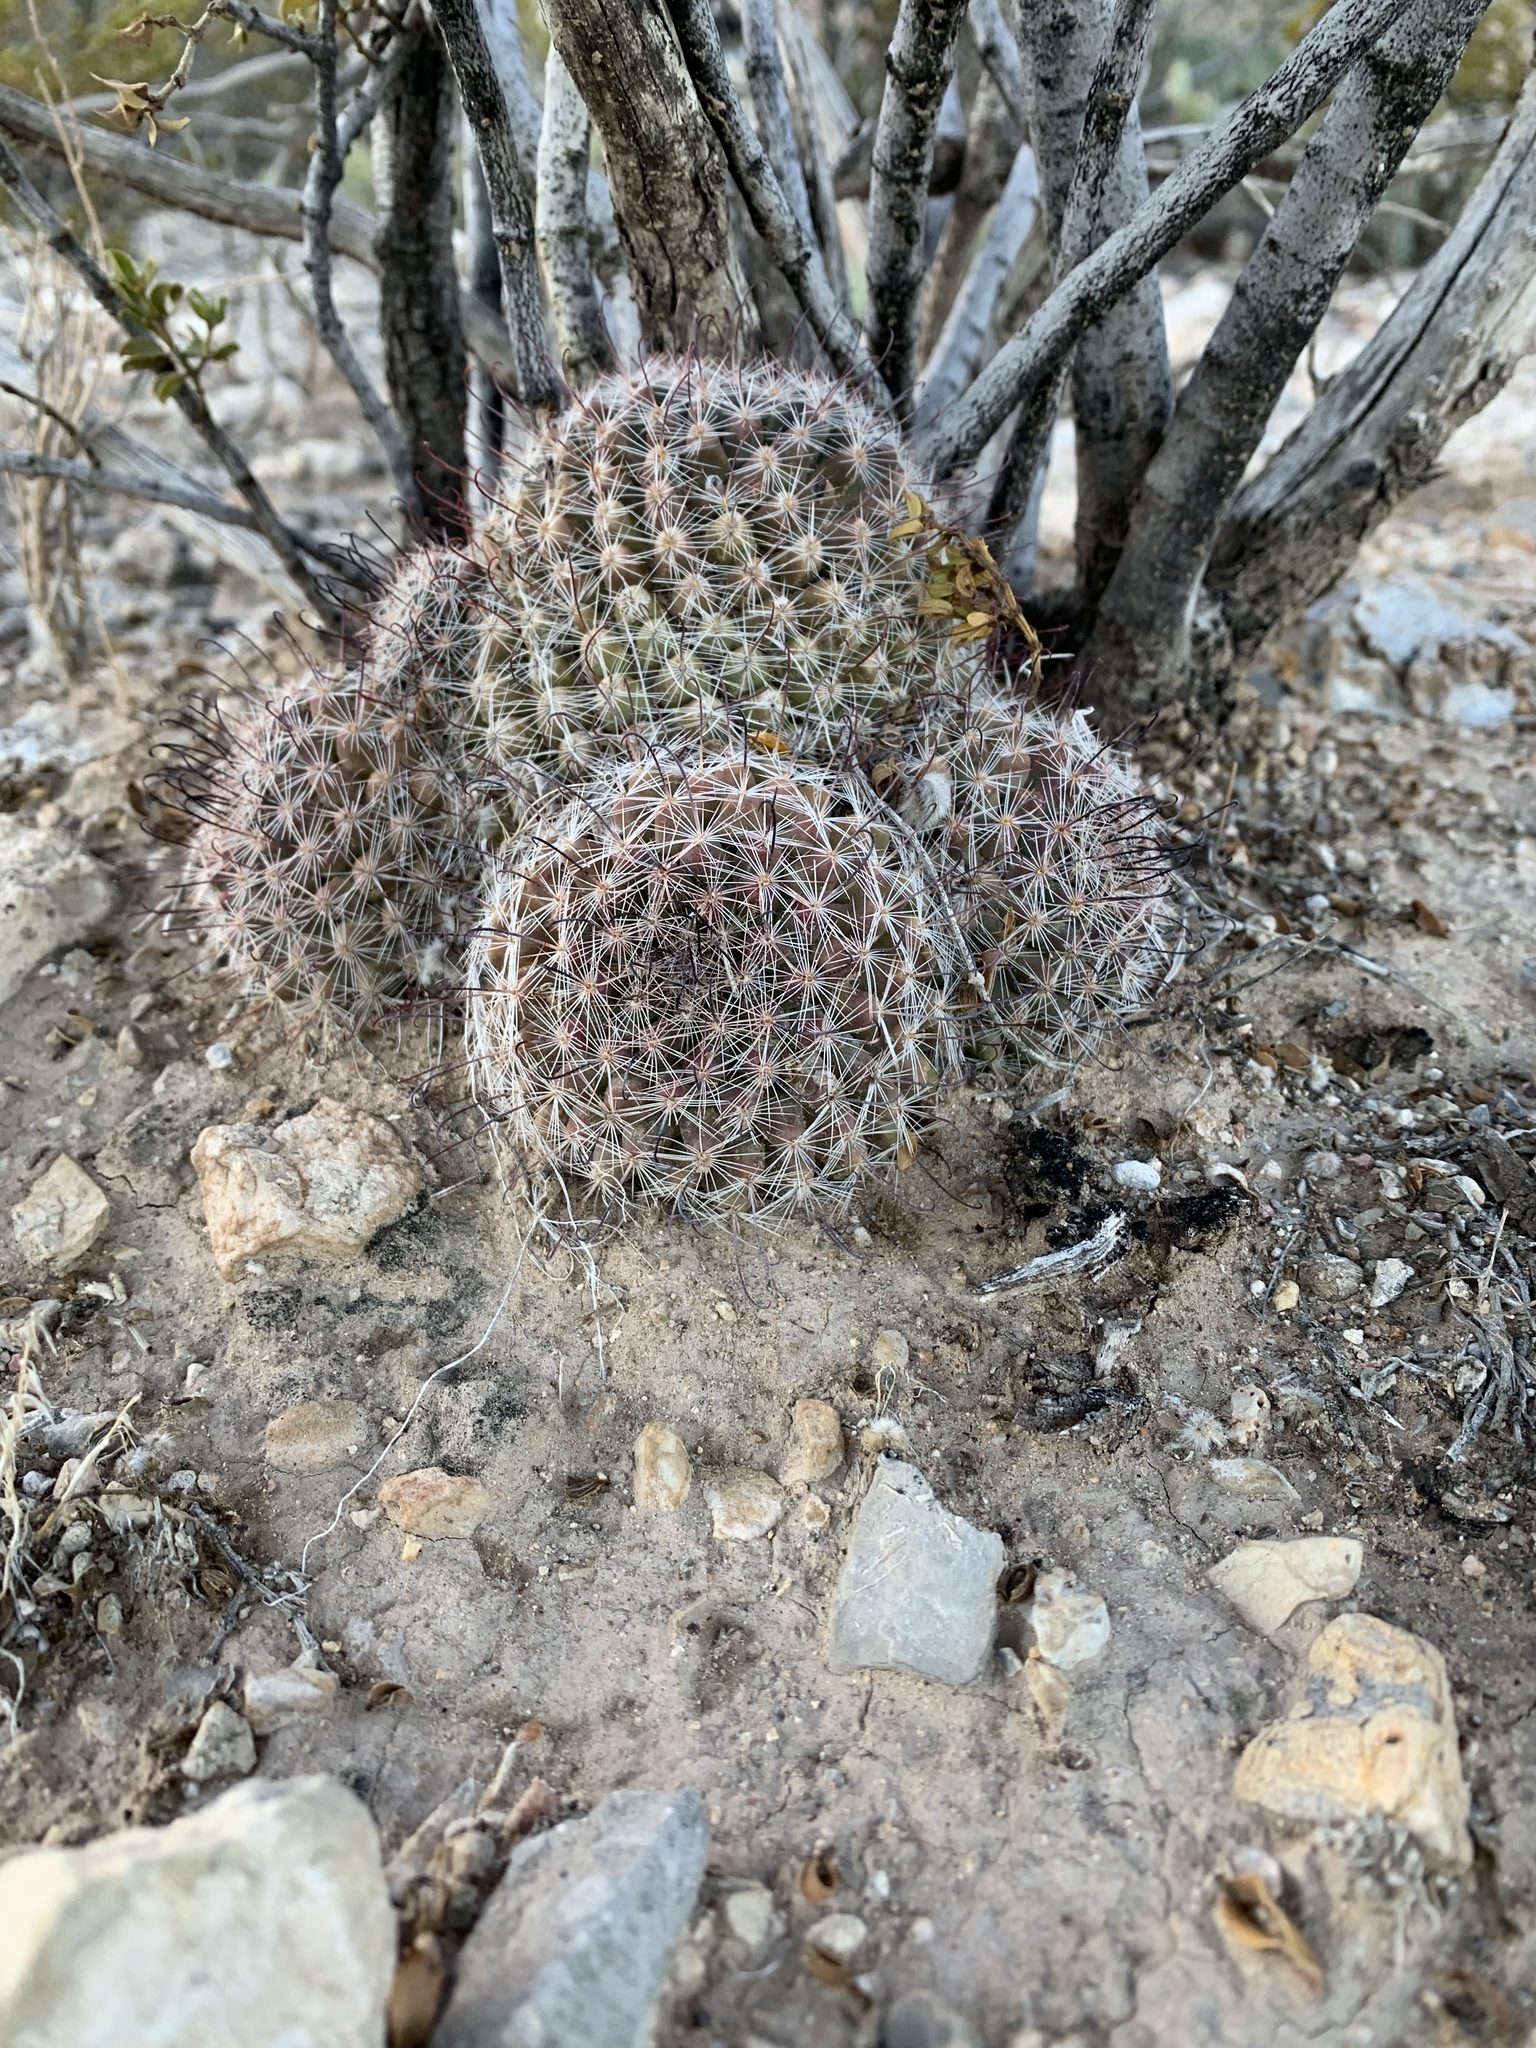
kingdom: Plantae
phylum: Tracheophyta
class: Magnoliopsida
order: Caryophyllales
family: Cactaceae
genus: Cochemiea
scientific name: Cochemiea grahamii
